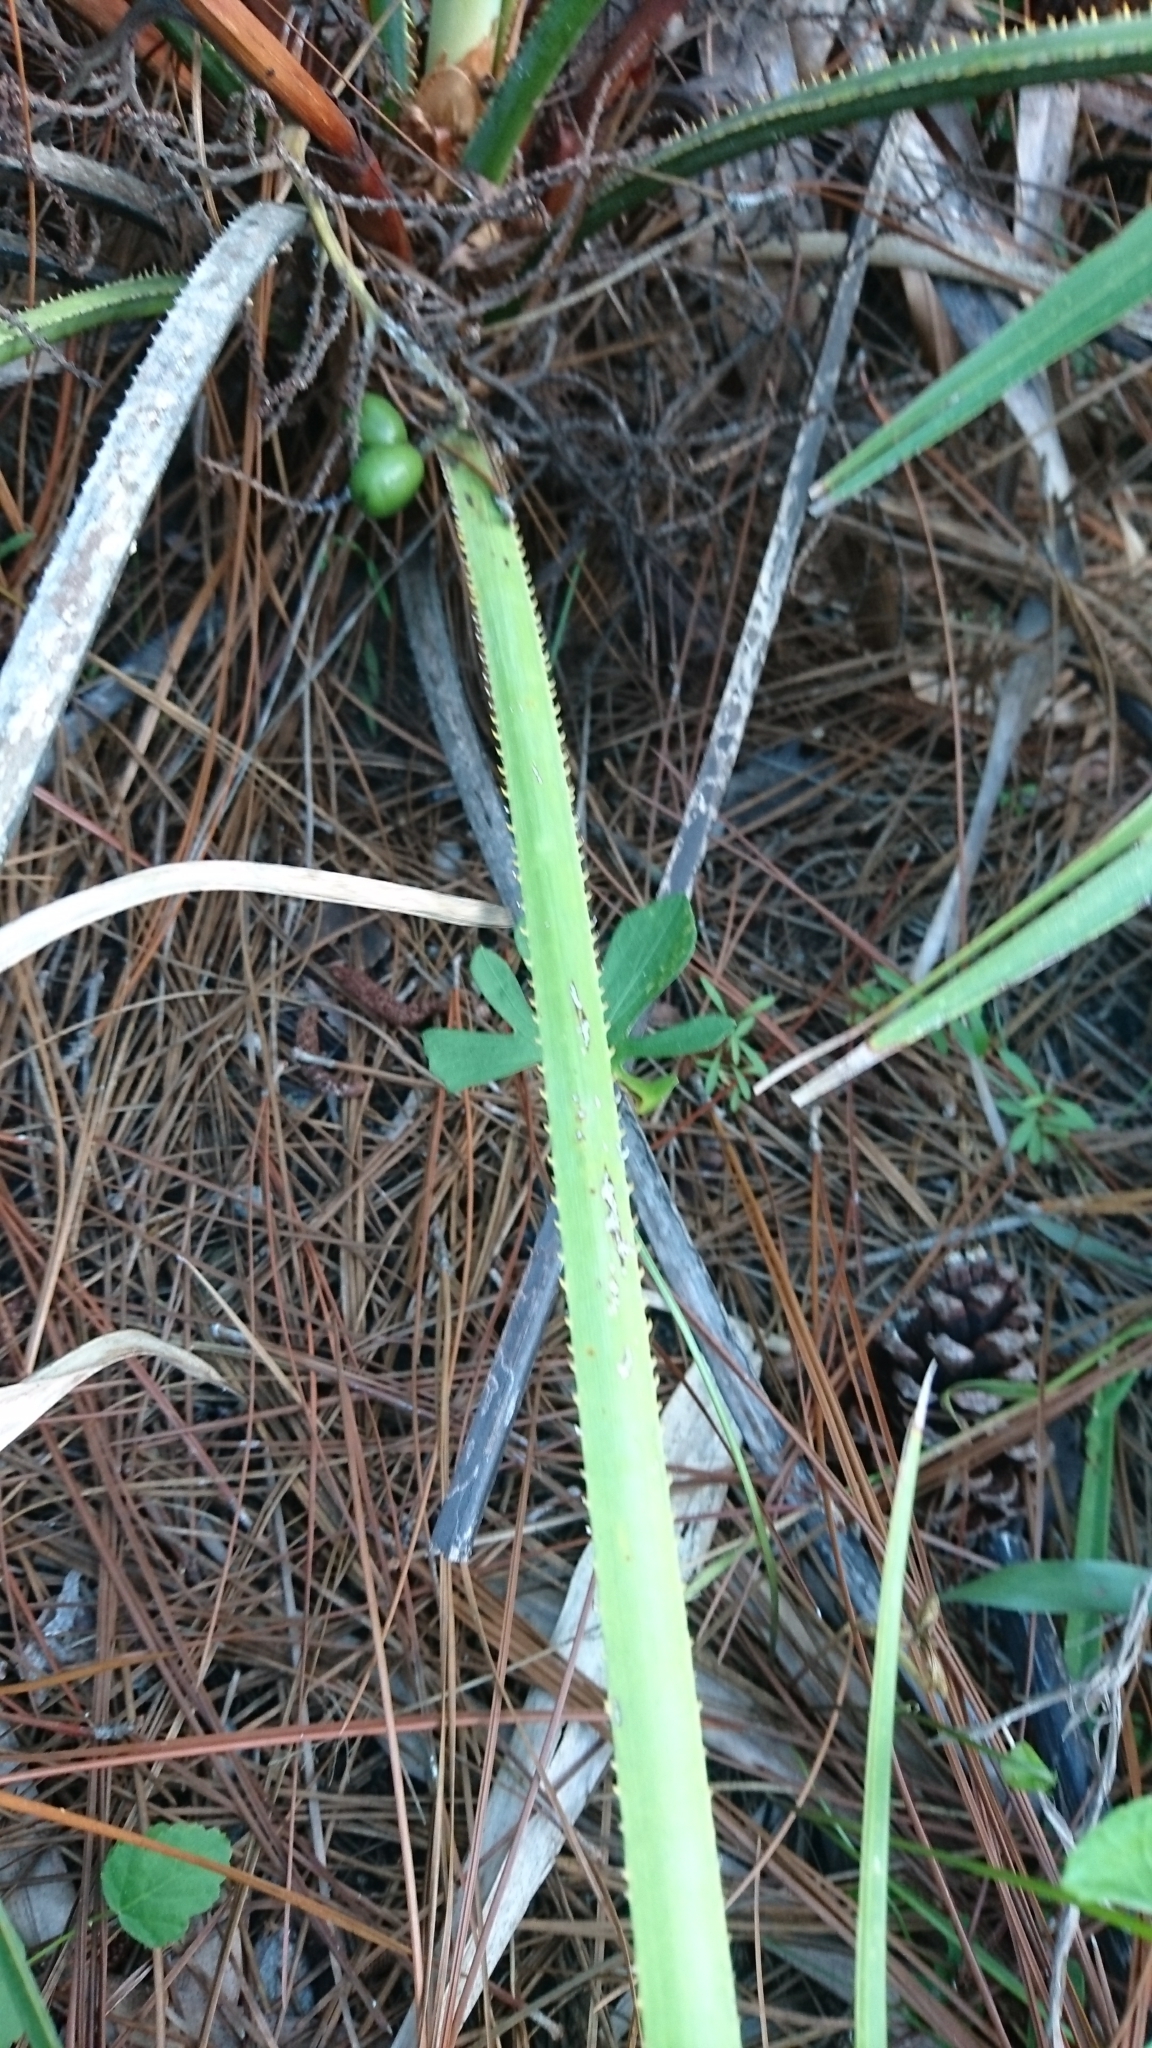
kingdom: Plantae
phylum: Tracheophyta
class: Liliopsida
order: Arecales
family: Arecaceae
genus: Serenoa
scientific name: Serenoa repens
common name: Saw-palmetto
